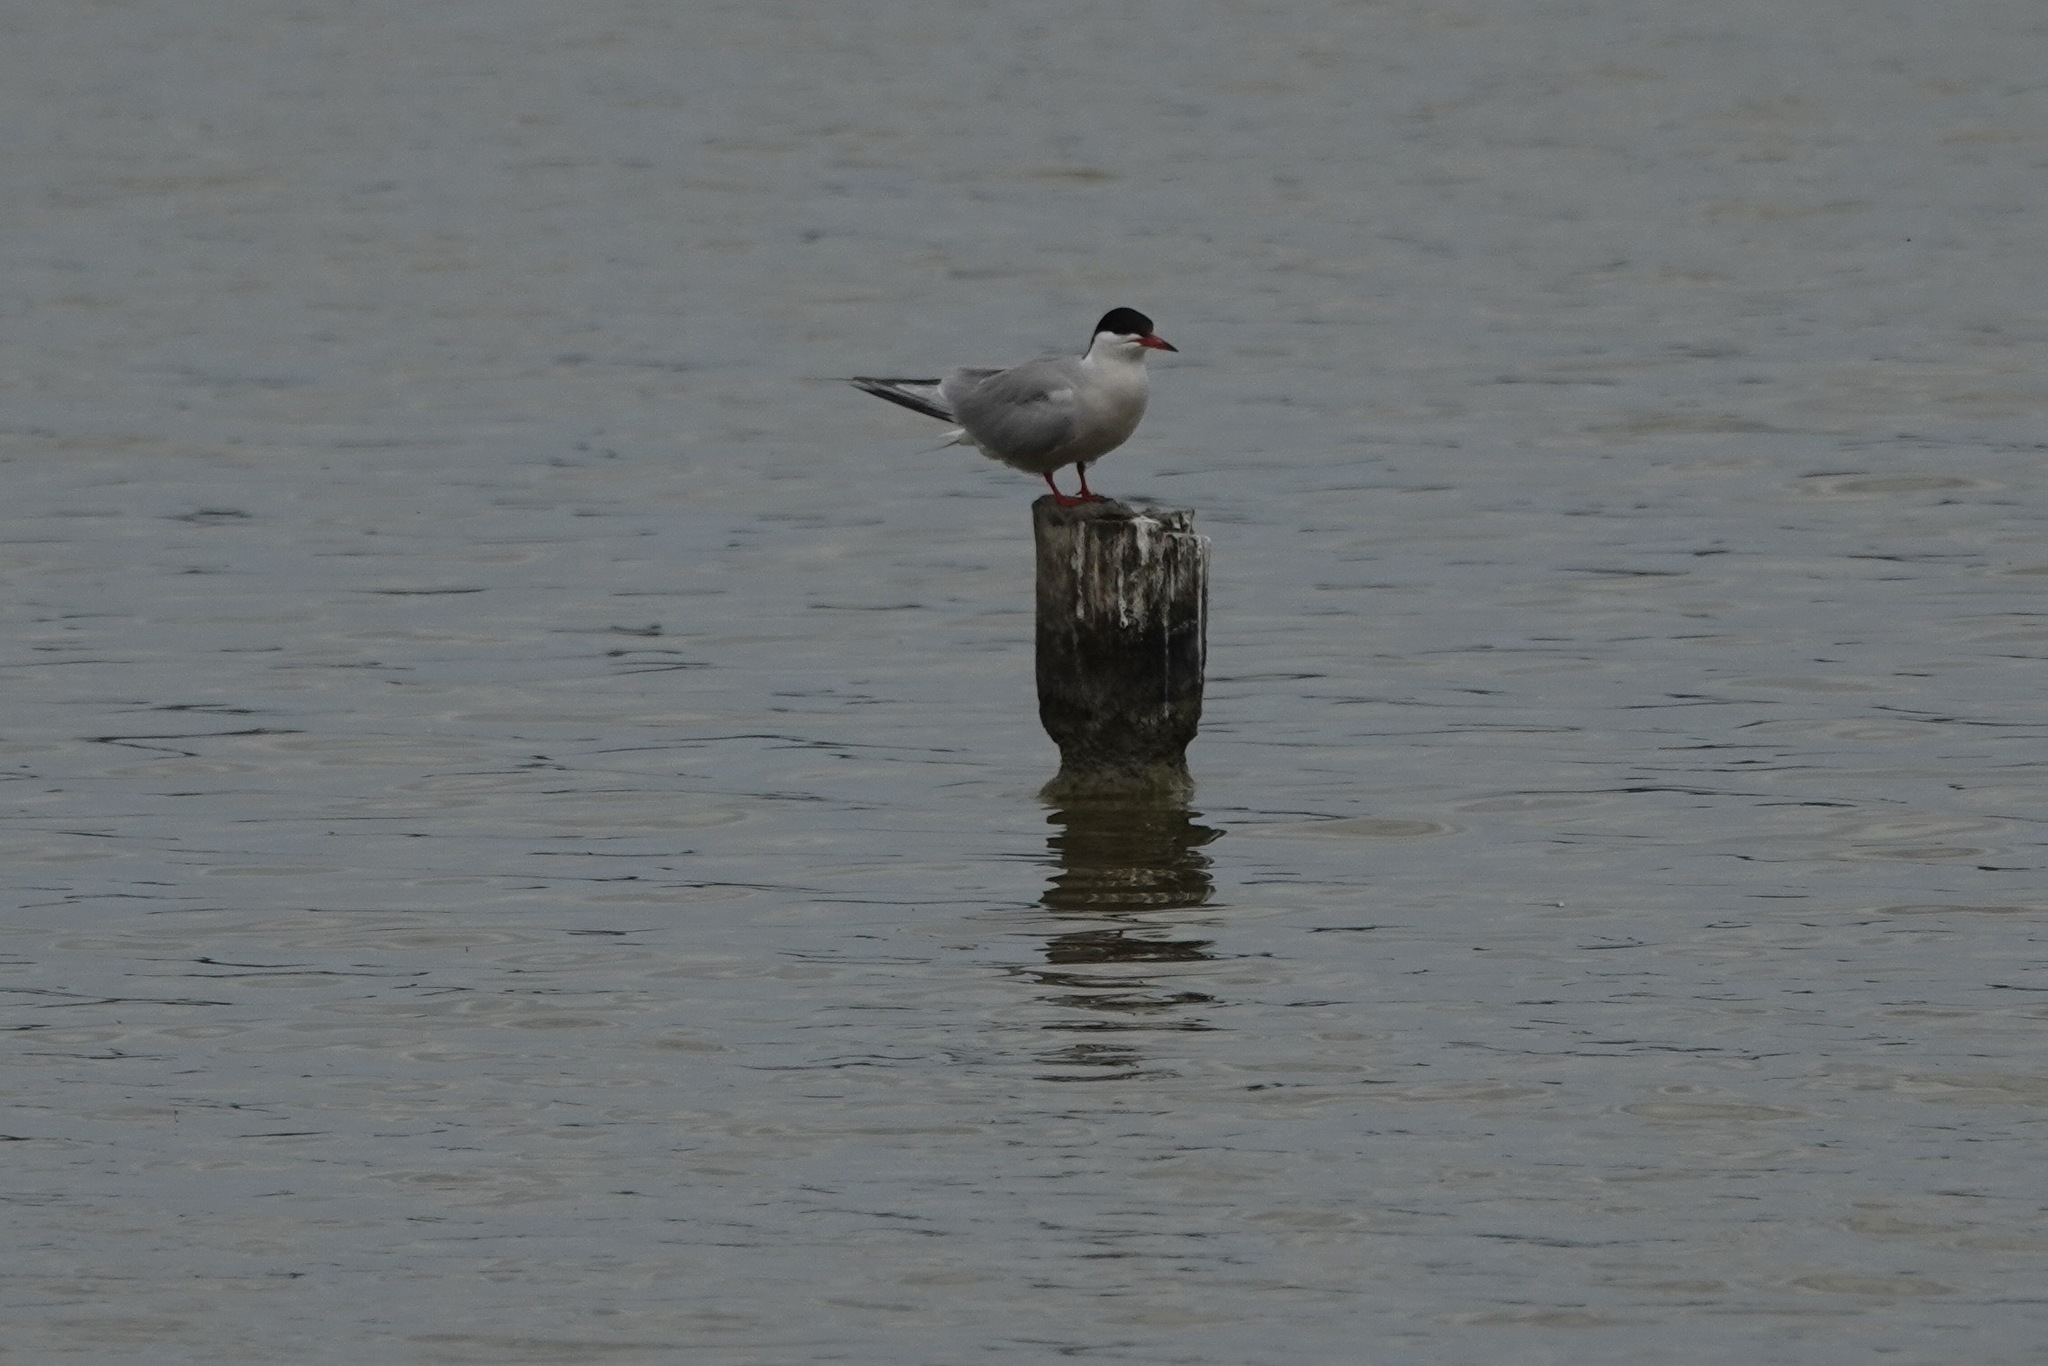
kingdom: Animalia
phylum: Chordata
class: Aves
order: Charadriiformes
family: Laridae
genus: Sterna
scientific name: Sterna hirundo
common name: Common tern
